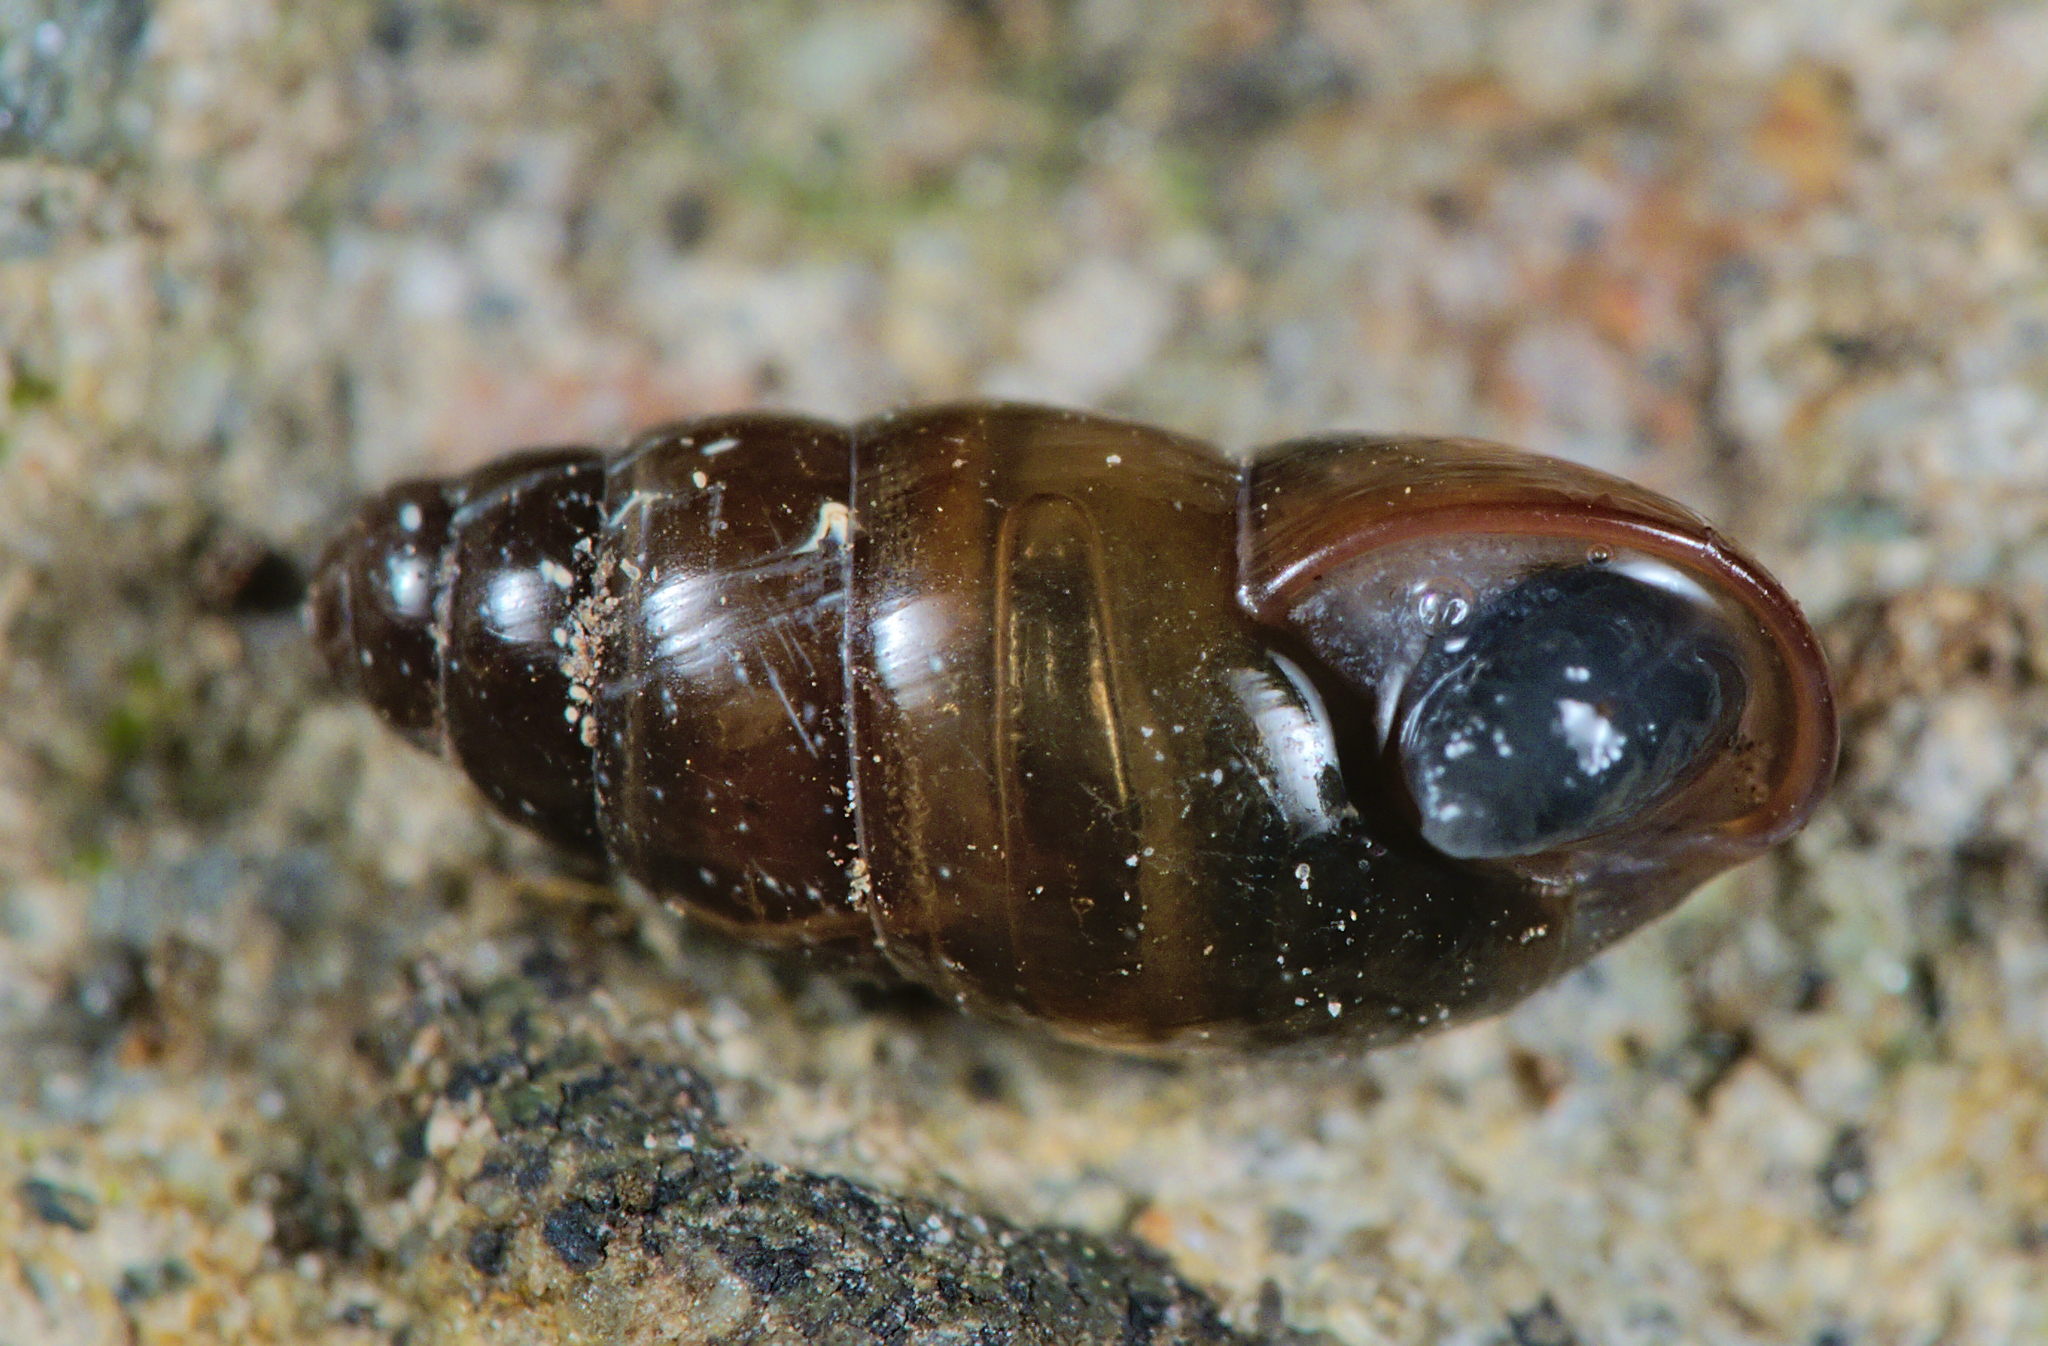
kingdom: Animalia
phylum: Mollusca
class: Gastropoda
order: Stylommatophora
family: Cochlicopidae
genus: Cochlicopa
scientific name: Cochlicopa lubrica
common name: Glossy pillar snail
